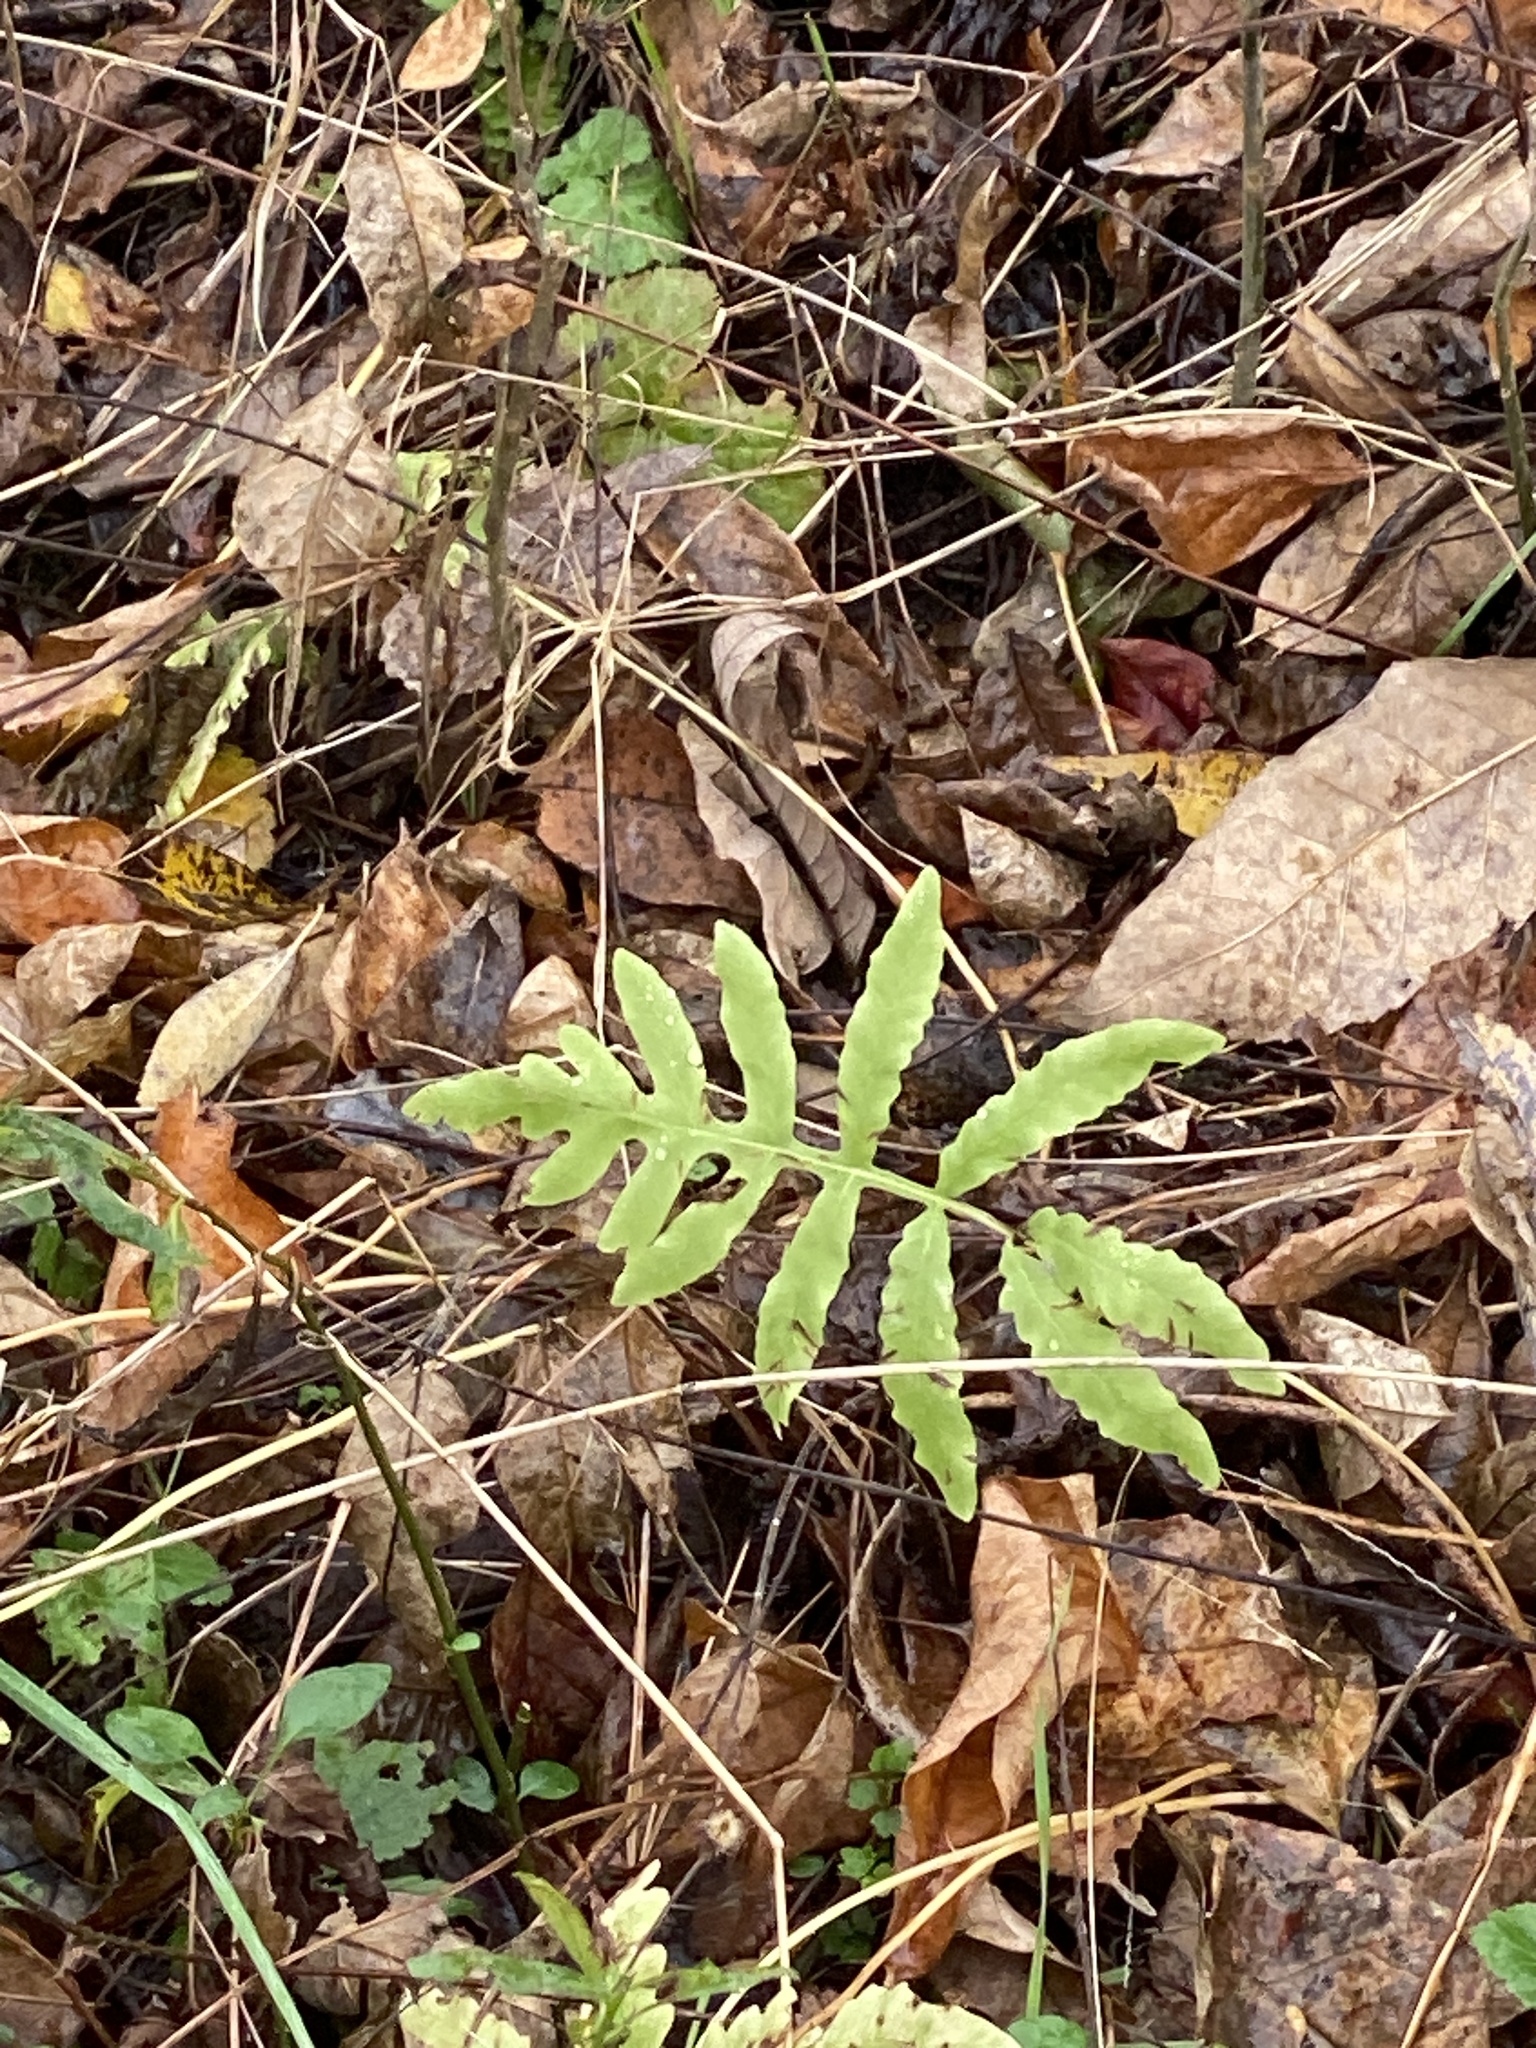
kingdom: Plantae
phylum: Tracheophyta
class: Polypodiopsida
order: Polypodiales
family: Onocleaceae
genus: Onoclea
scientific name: Onoclea sensibilis
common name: Sensitive fern
